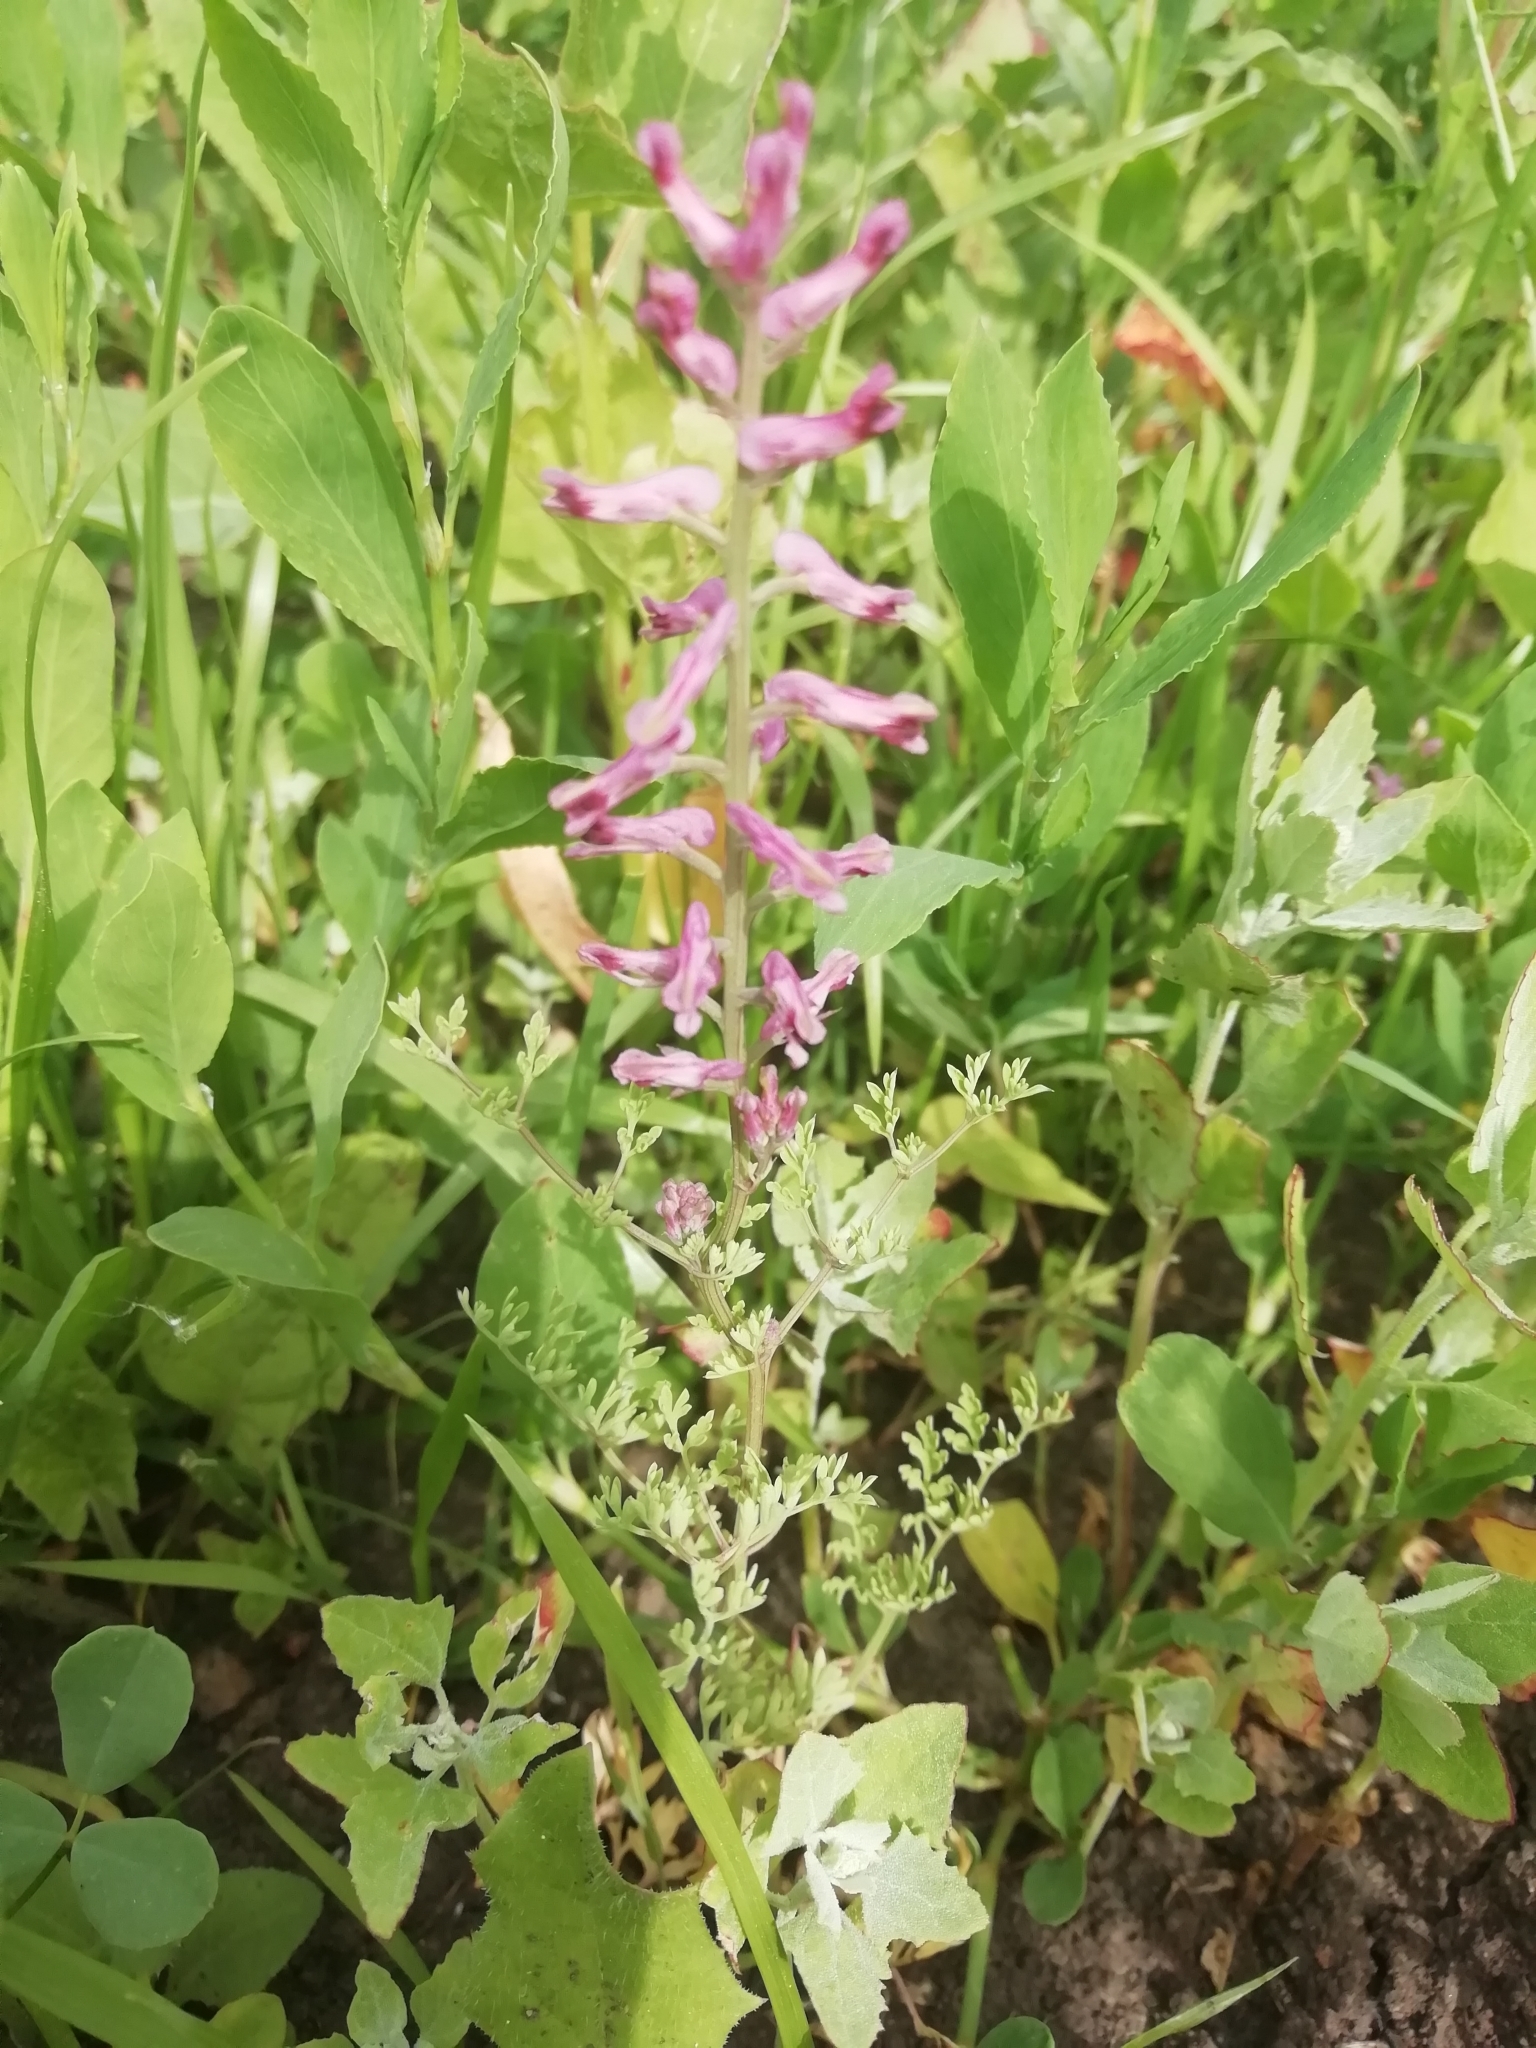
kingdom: Plantae
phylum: Tracheophyta
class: Magnoliopsida
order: Ranunculales
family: Papaveraceae
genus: Fumaria
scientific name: Fumaria officinalis
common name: Common fumitory
